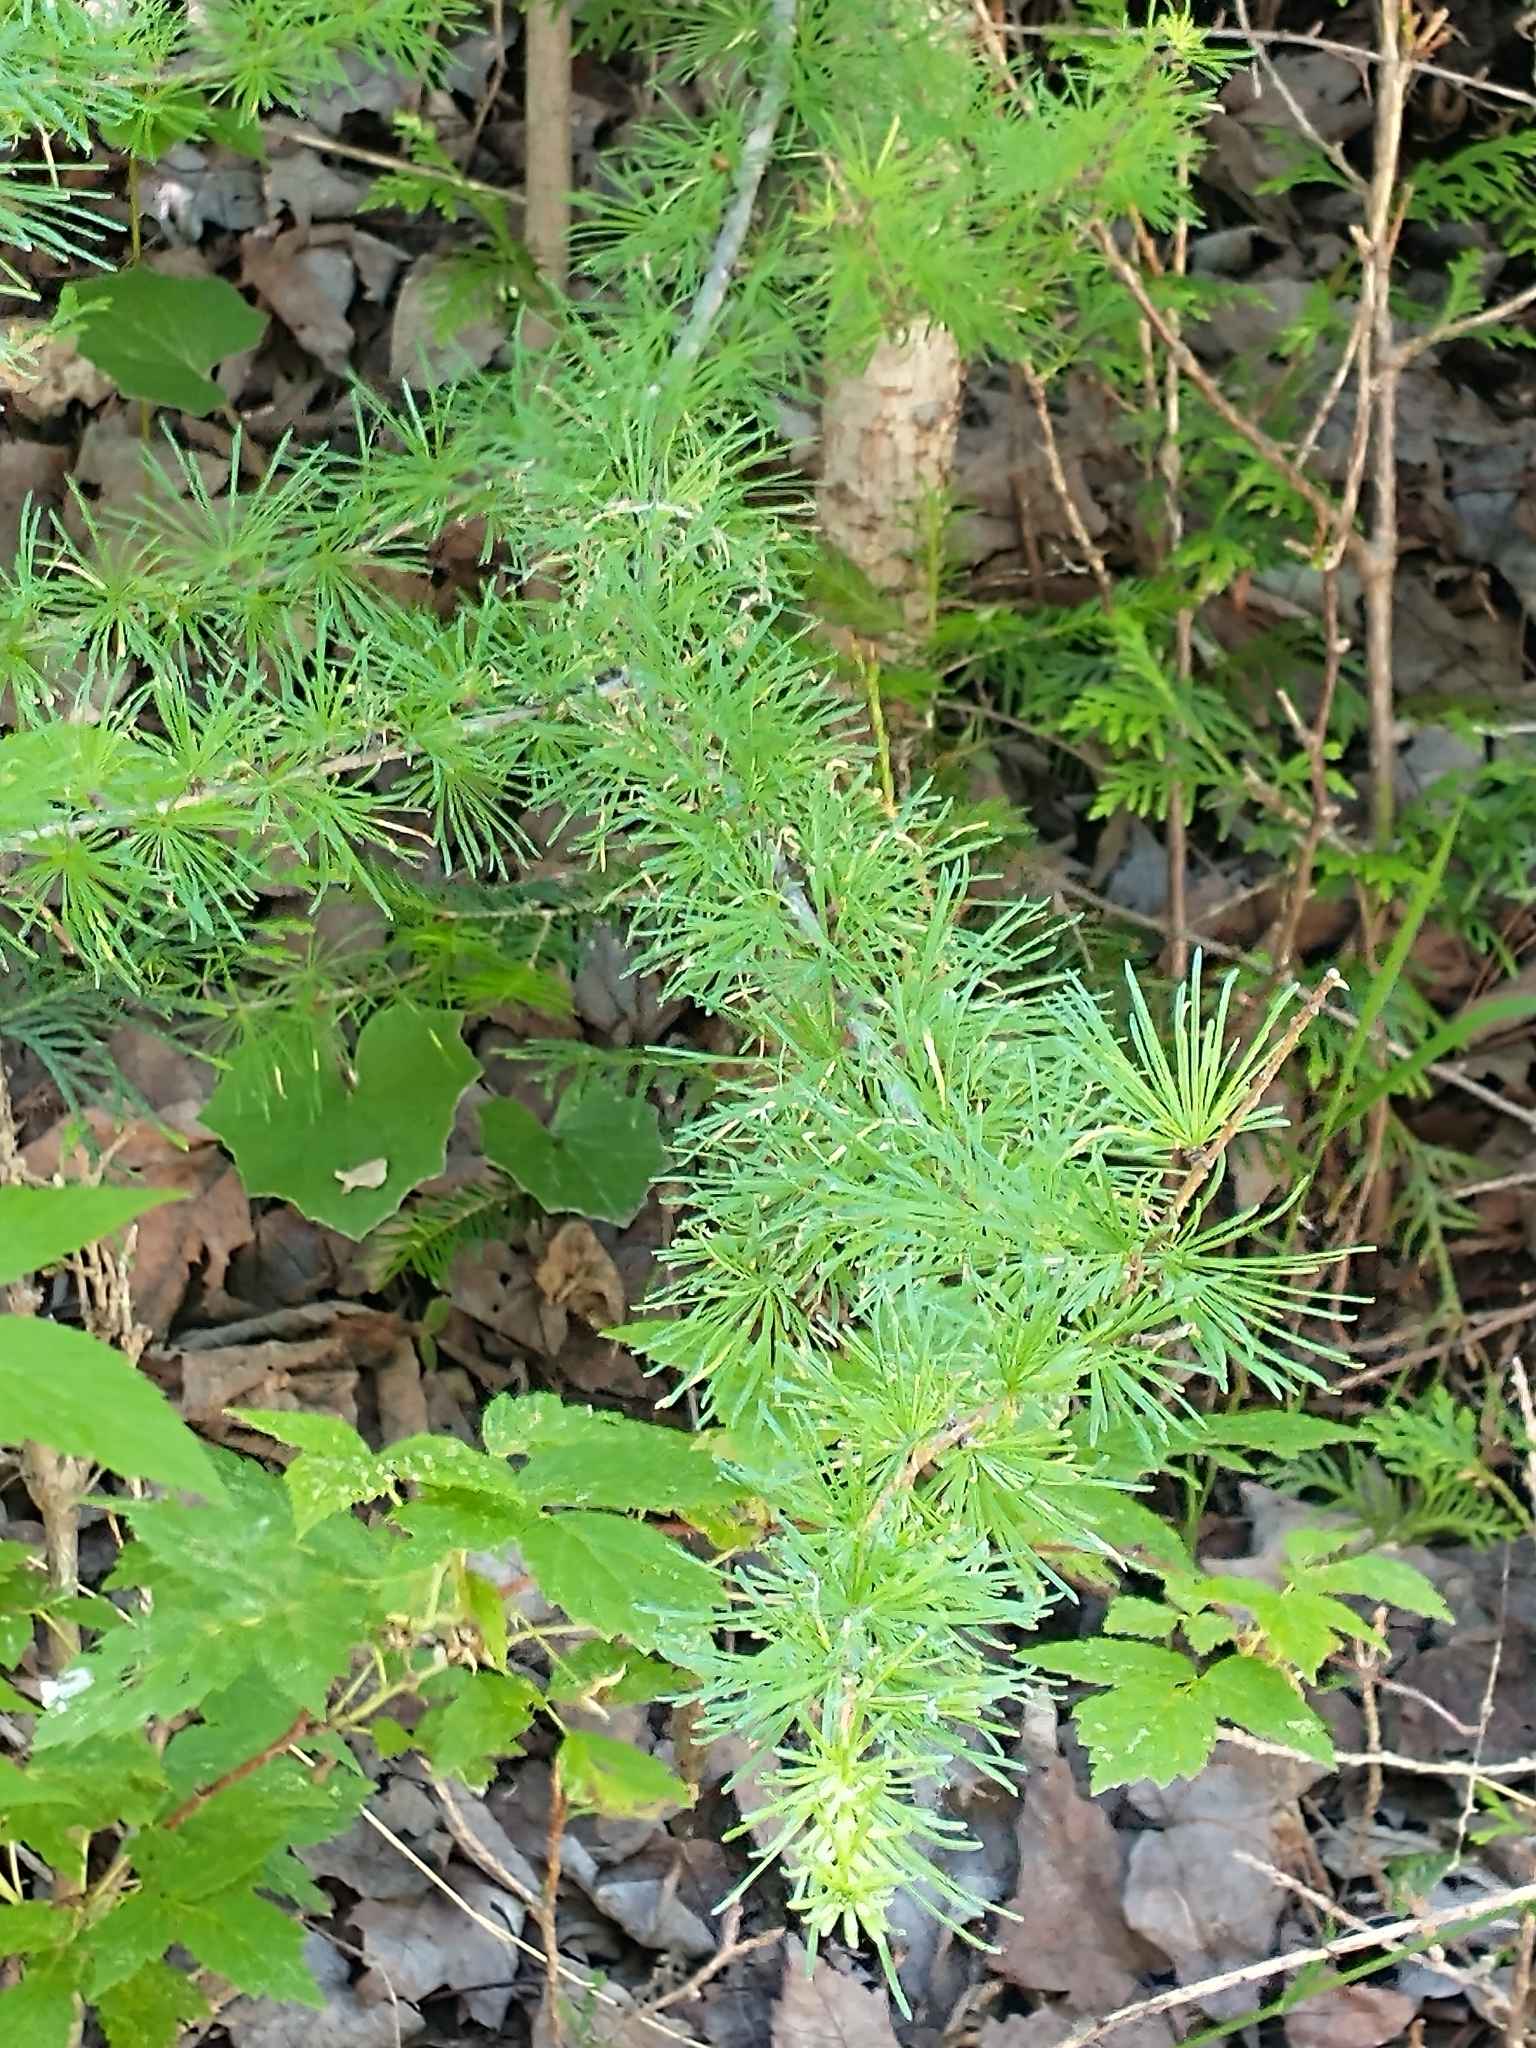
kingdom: Plantae
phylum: Tracheophyta
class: Pinopsida
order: Pinales
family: Pinaceae
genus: Larix
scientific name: Larix laricina
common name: American larch
